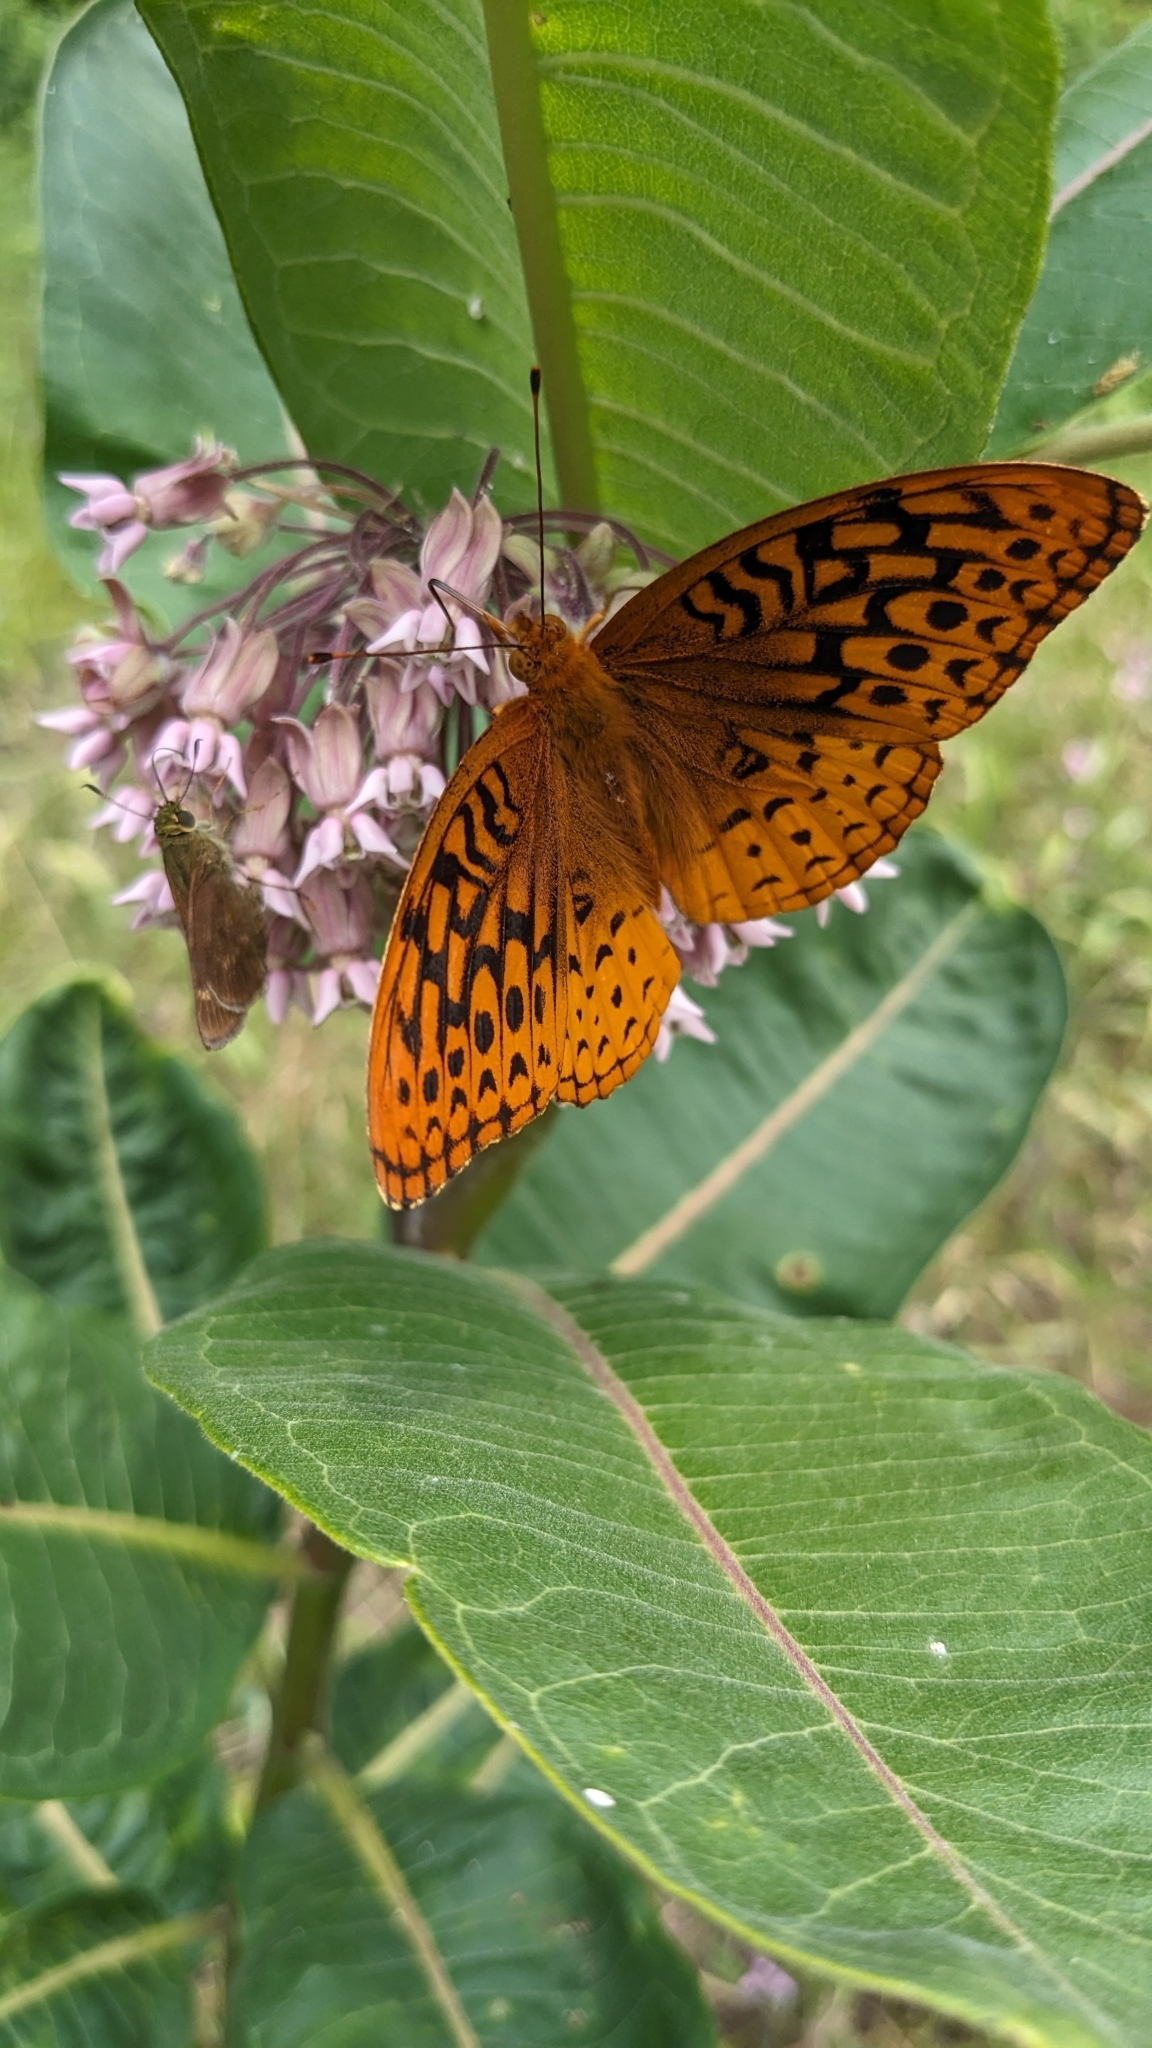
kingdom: Animalia
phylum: Arthropoda
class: Insecta
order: Lepidoptera
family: Nymphalidae
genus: Speyeria
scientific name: Speyeria cybele
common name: Great spangled fritillary
